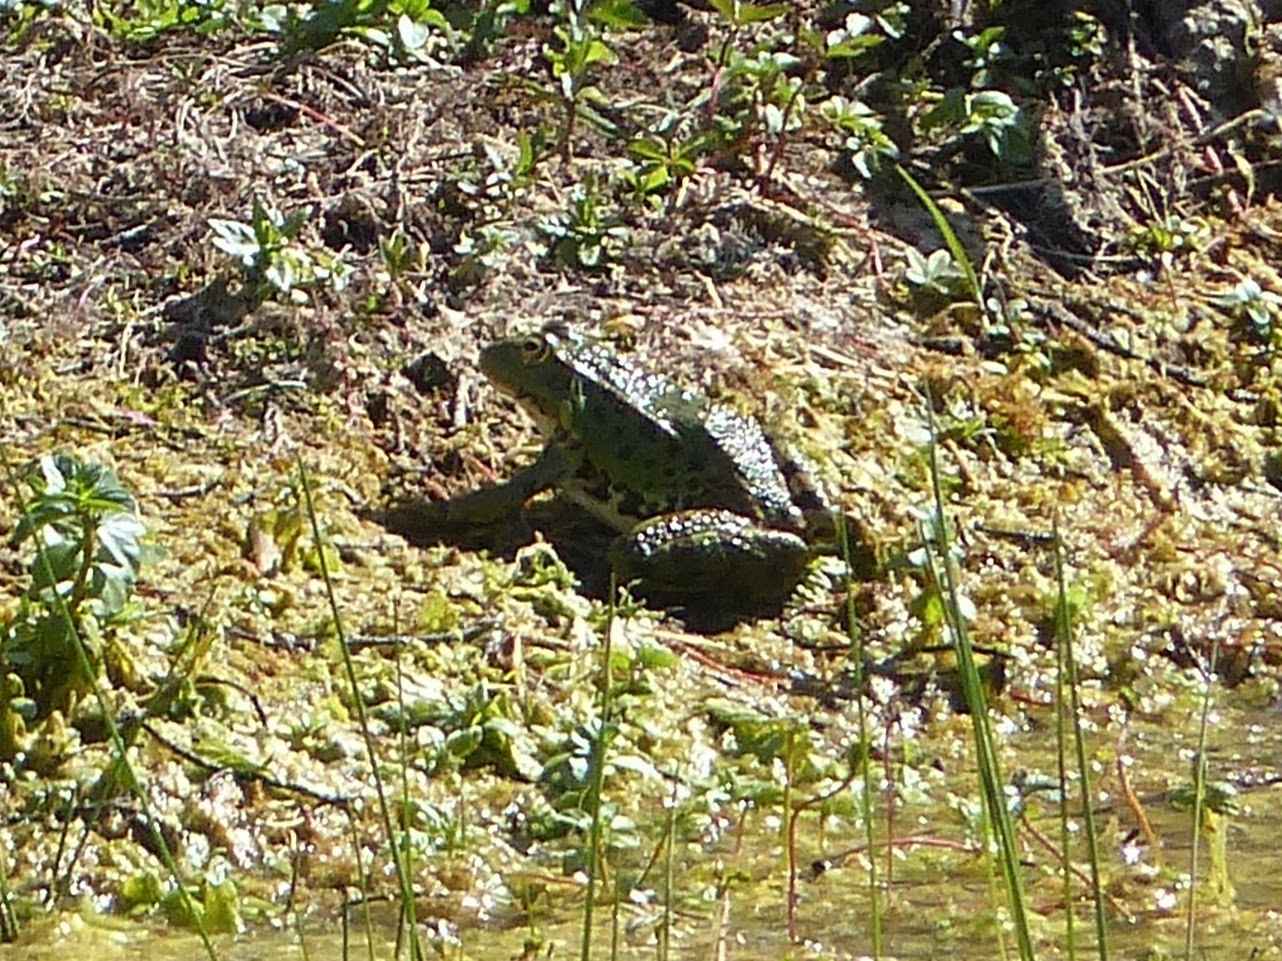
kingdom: Animalia
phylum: Chordata
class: Amphibia
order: Anura
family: Ranidae
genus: Pelophylax
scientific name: Pelophylax perezi
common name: Perez's frog
